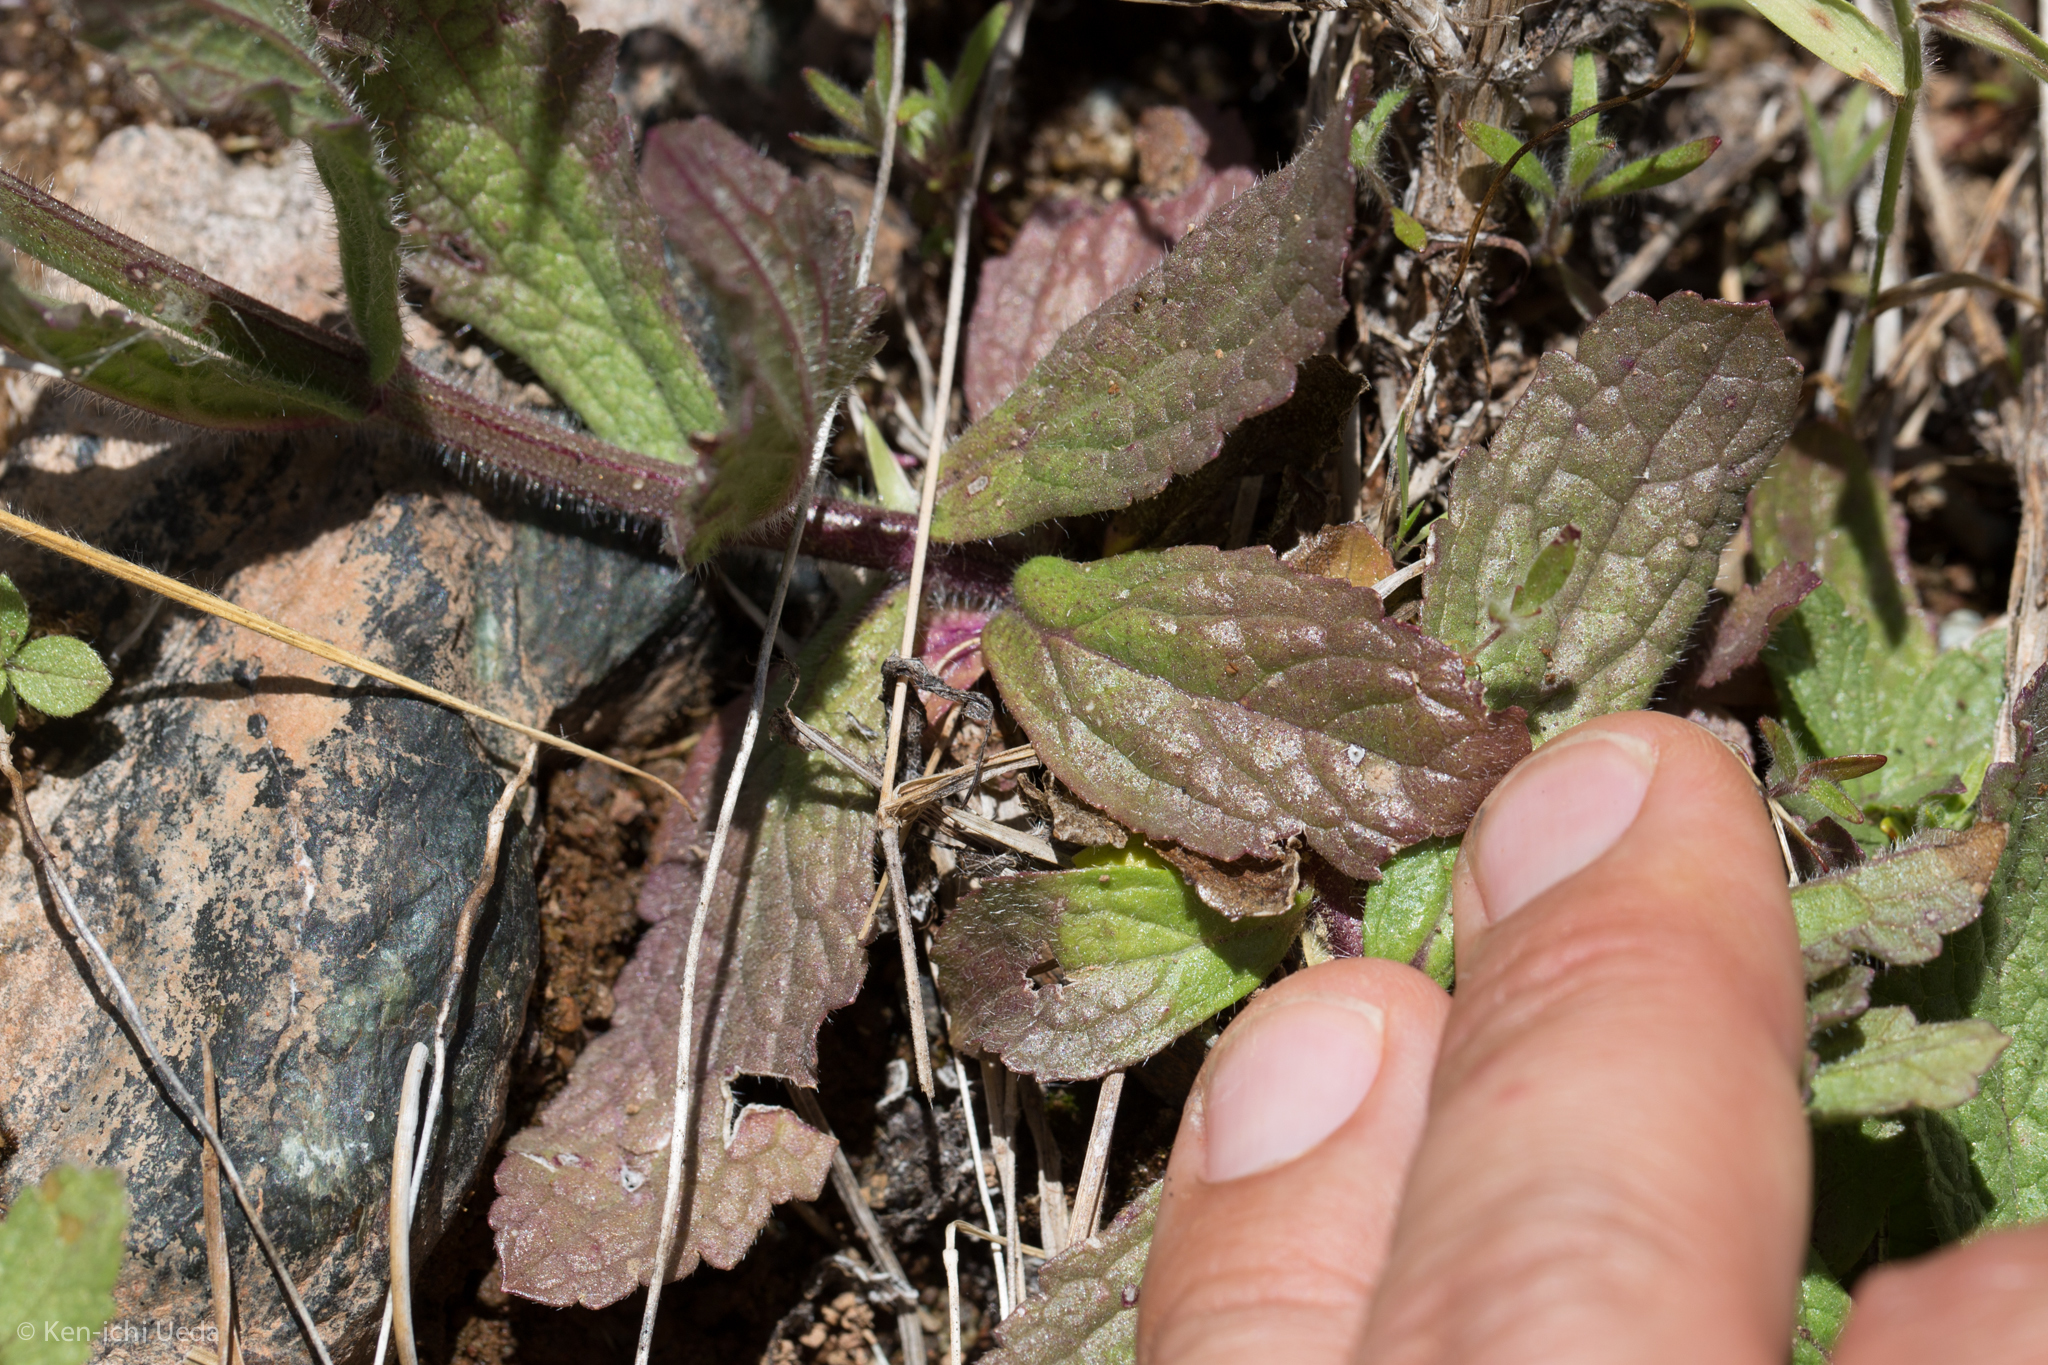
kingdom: Plantae
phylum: Tracheophyta
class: Magnoliopsida
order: Lamiales
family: Verbenaceae
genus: Verbena
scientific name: Verbena californica
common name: California vervain
